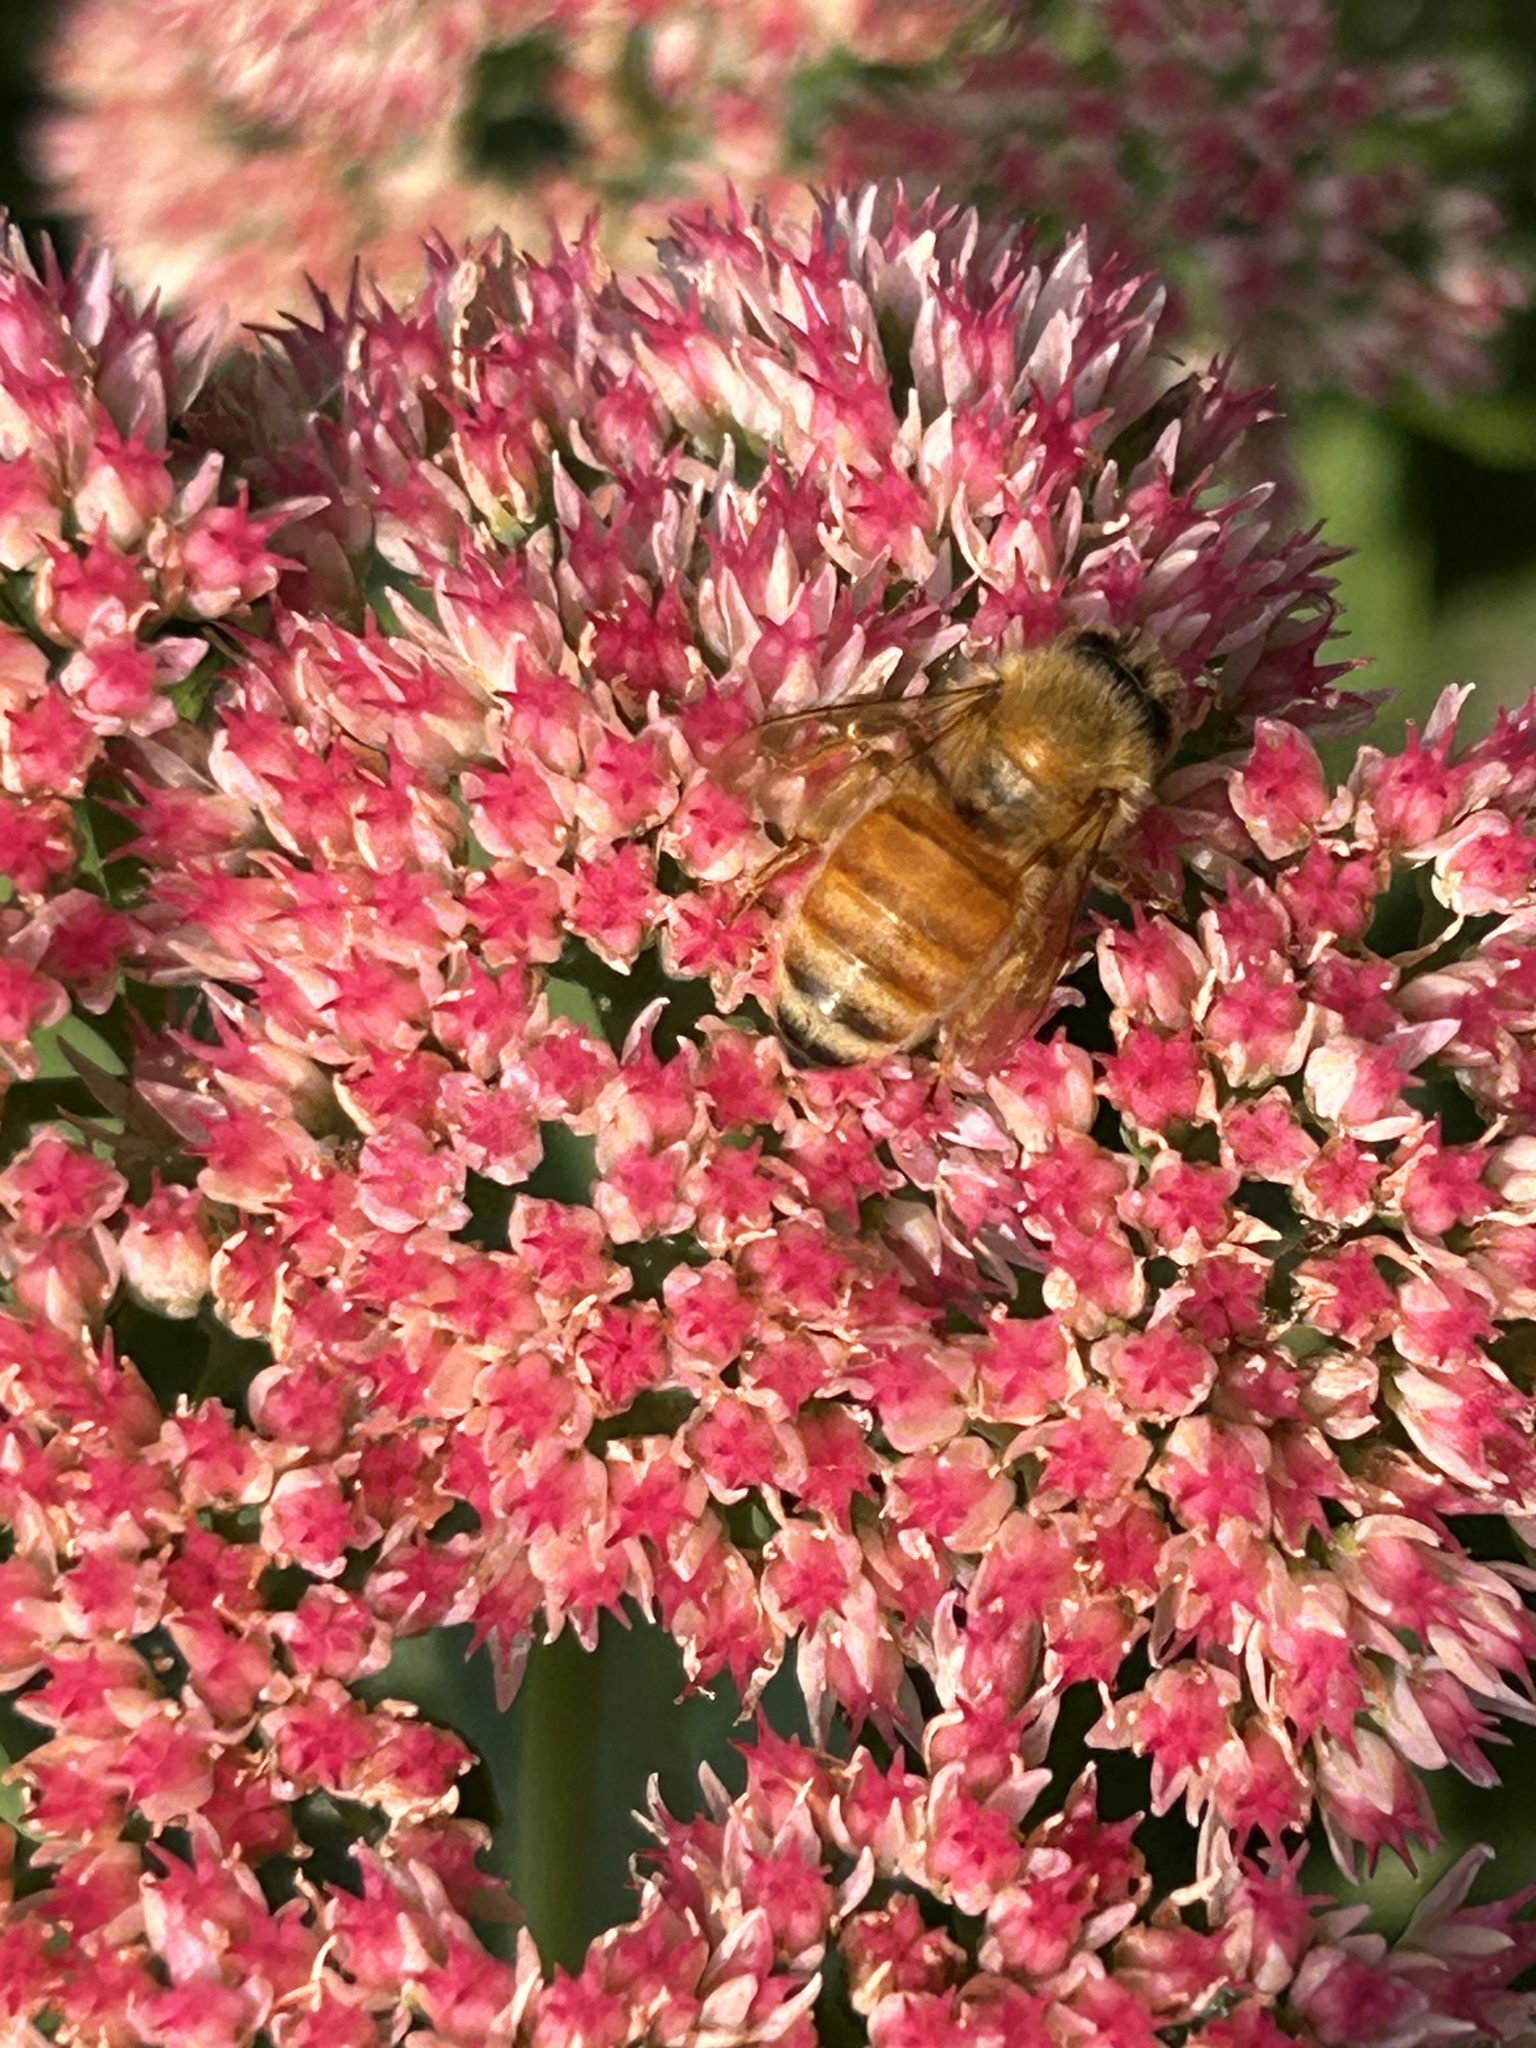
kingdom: Animalia
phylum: Arthropoda
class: Insecta
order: Hymenoptera
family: Apidae
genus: Apis
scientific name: Apis mellifera
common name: Honey bee
